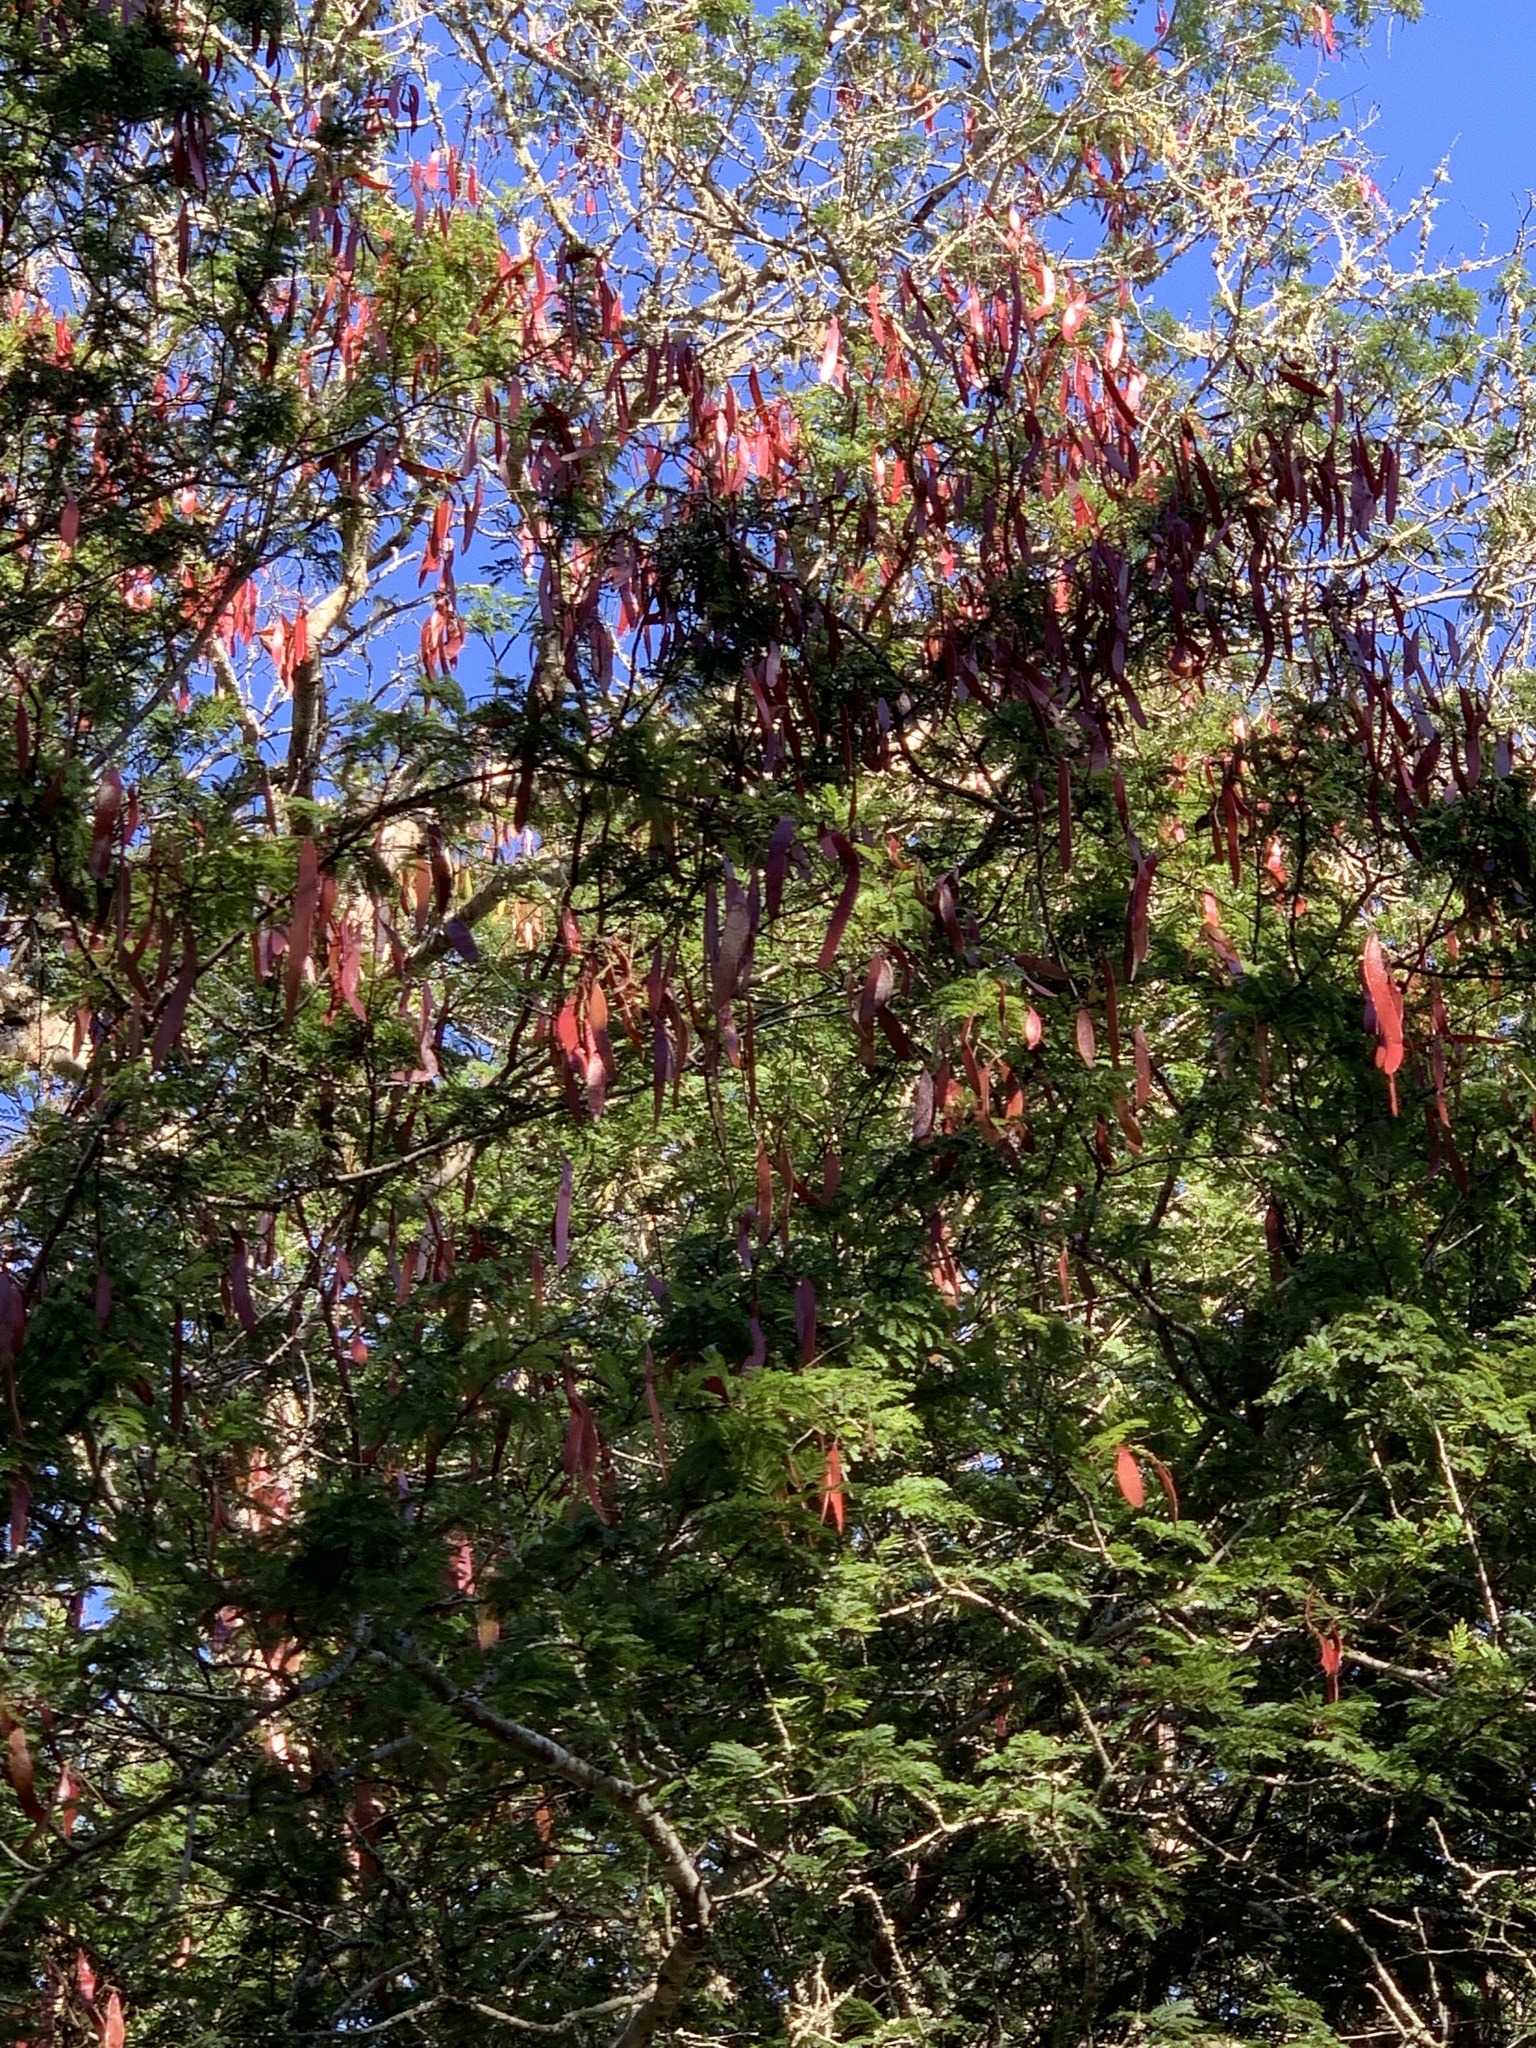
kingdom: Plantae
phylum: Tracheophyta
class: Magnoliopsida
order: Fabales
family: Fabaceae
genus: Newtonia
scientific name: Newtonia hildebrandtii
